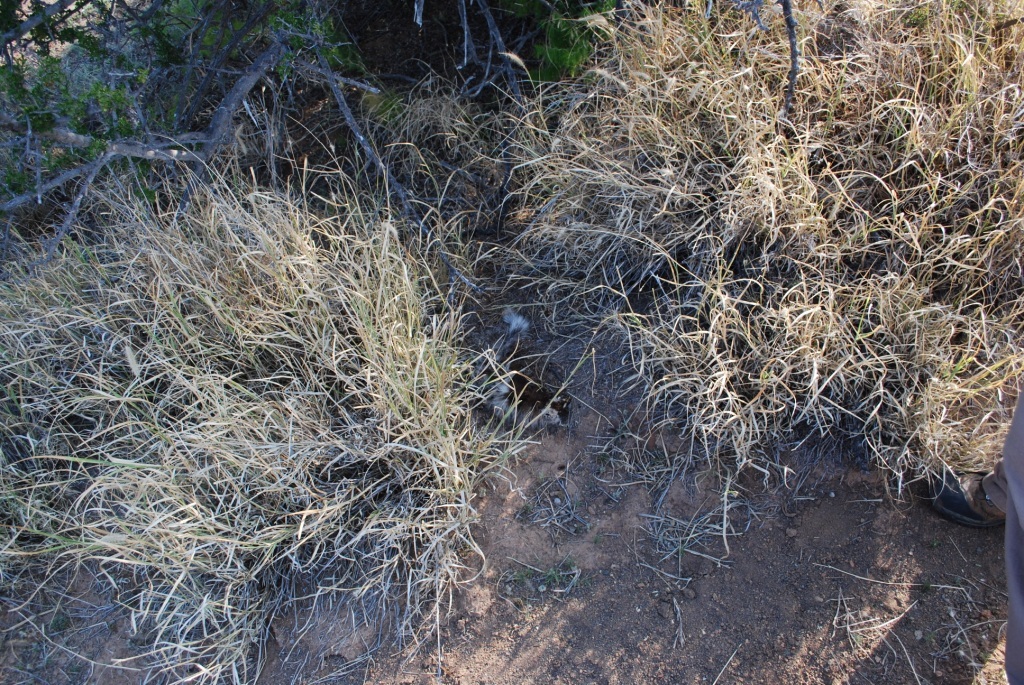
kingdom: Animalia
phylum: Chordata
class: Mammalia
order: Carnivora
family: Mustelidae
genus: Ictonyx
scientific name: Ictonyx striatus
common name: Striped polecat
